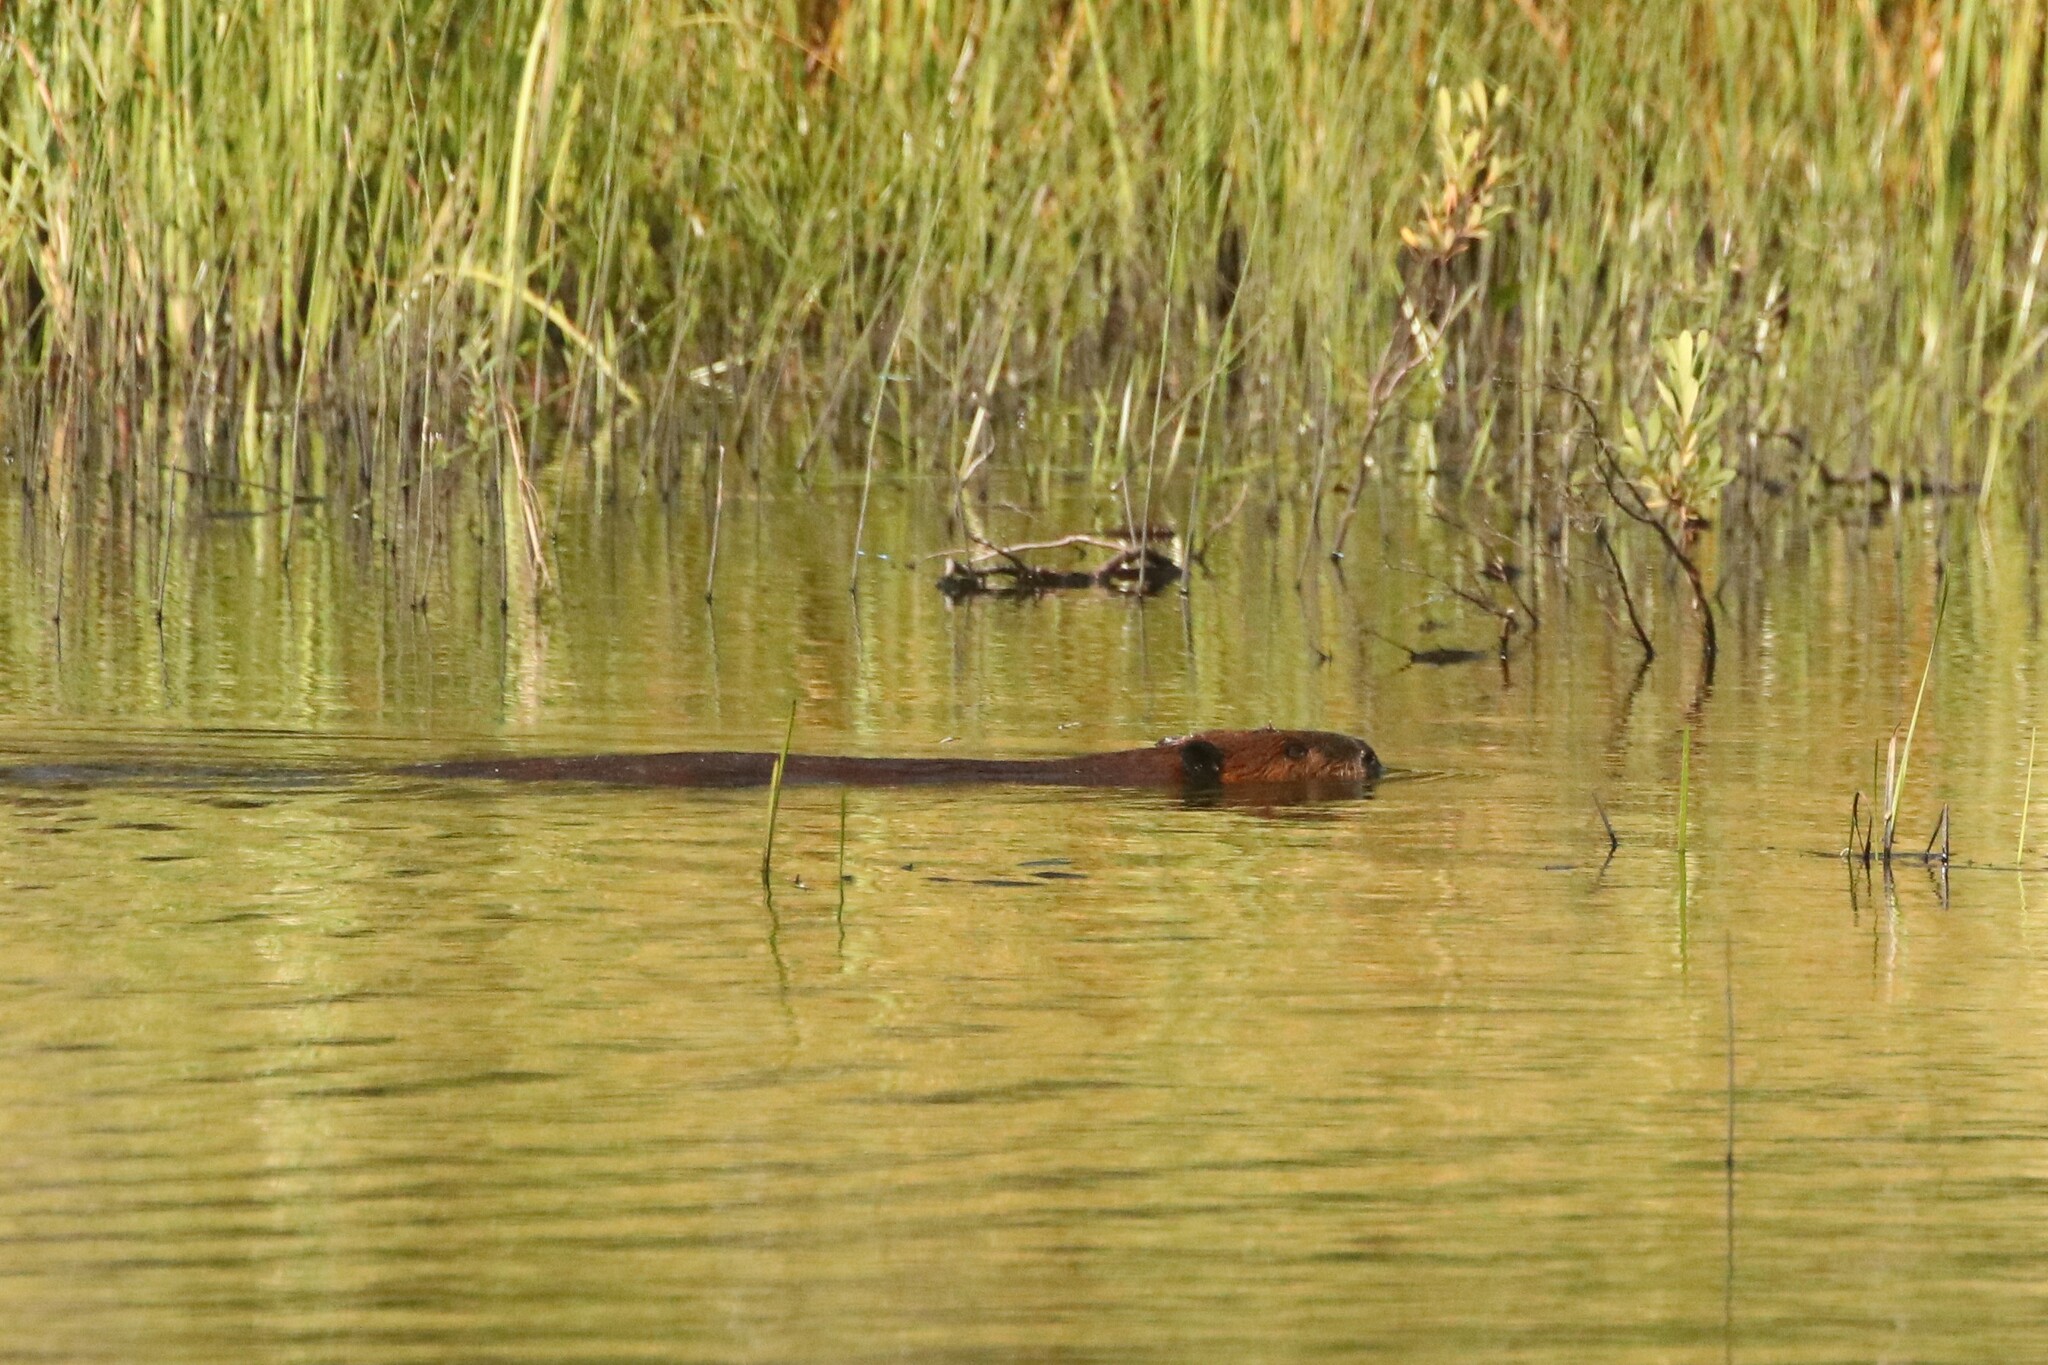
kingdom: Animalia
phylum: Chordata
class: Mammalia
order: Rodentia
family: Castoridae
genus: Castor
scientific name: Castor canadensis
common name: American beaver
